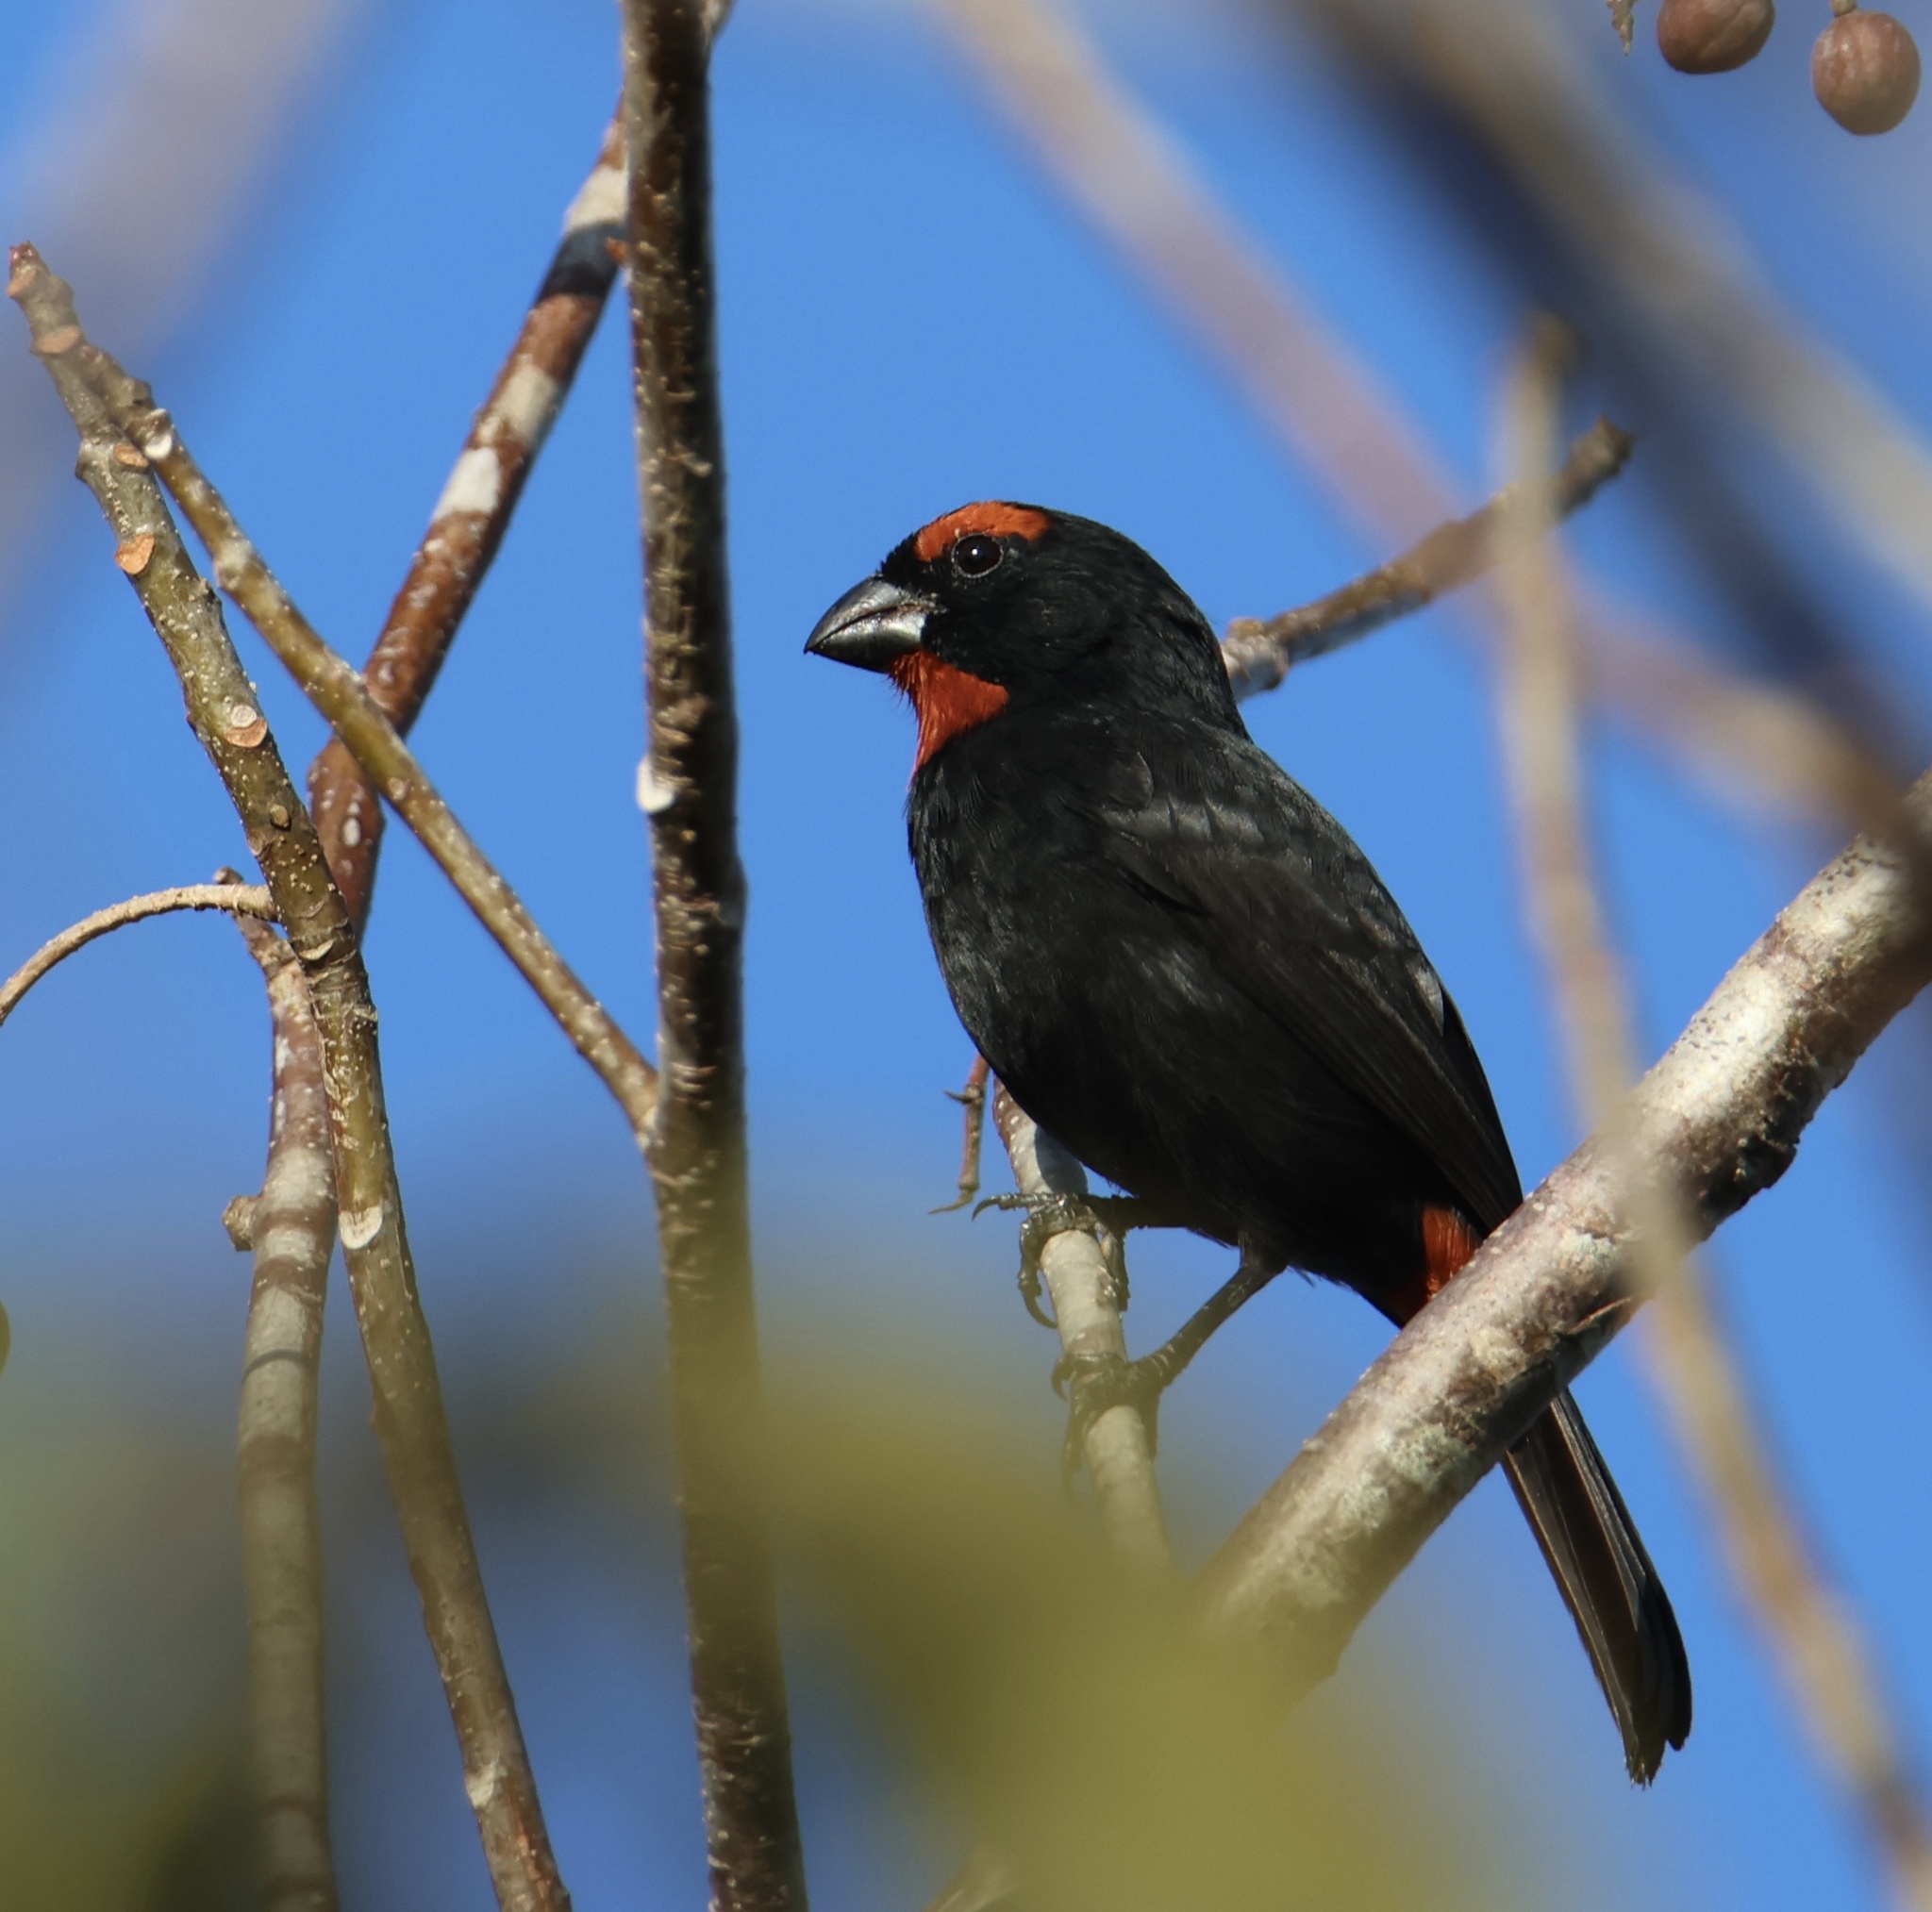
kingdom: Animalia
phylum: Chordata
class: Aves
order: Passeriformes
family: Thraupidae
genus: Melopyrrha
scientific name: Melopyrrha violacea
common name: Greater antillean bullfinch
